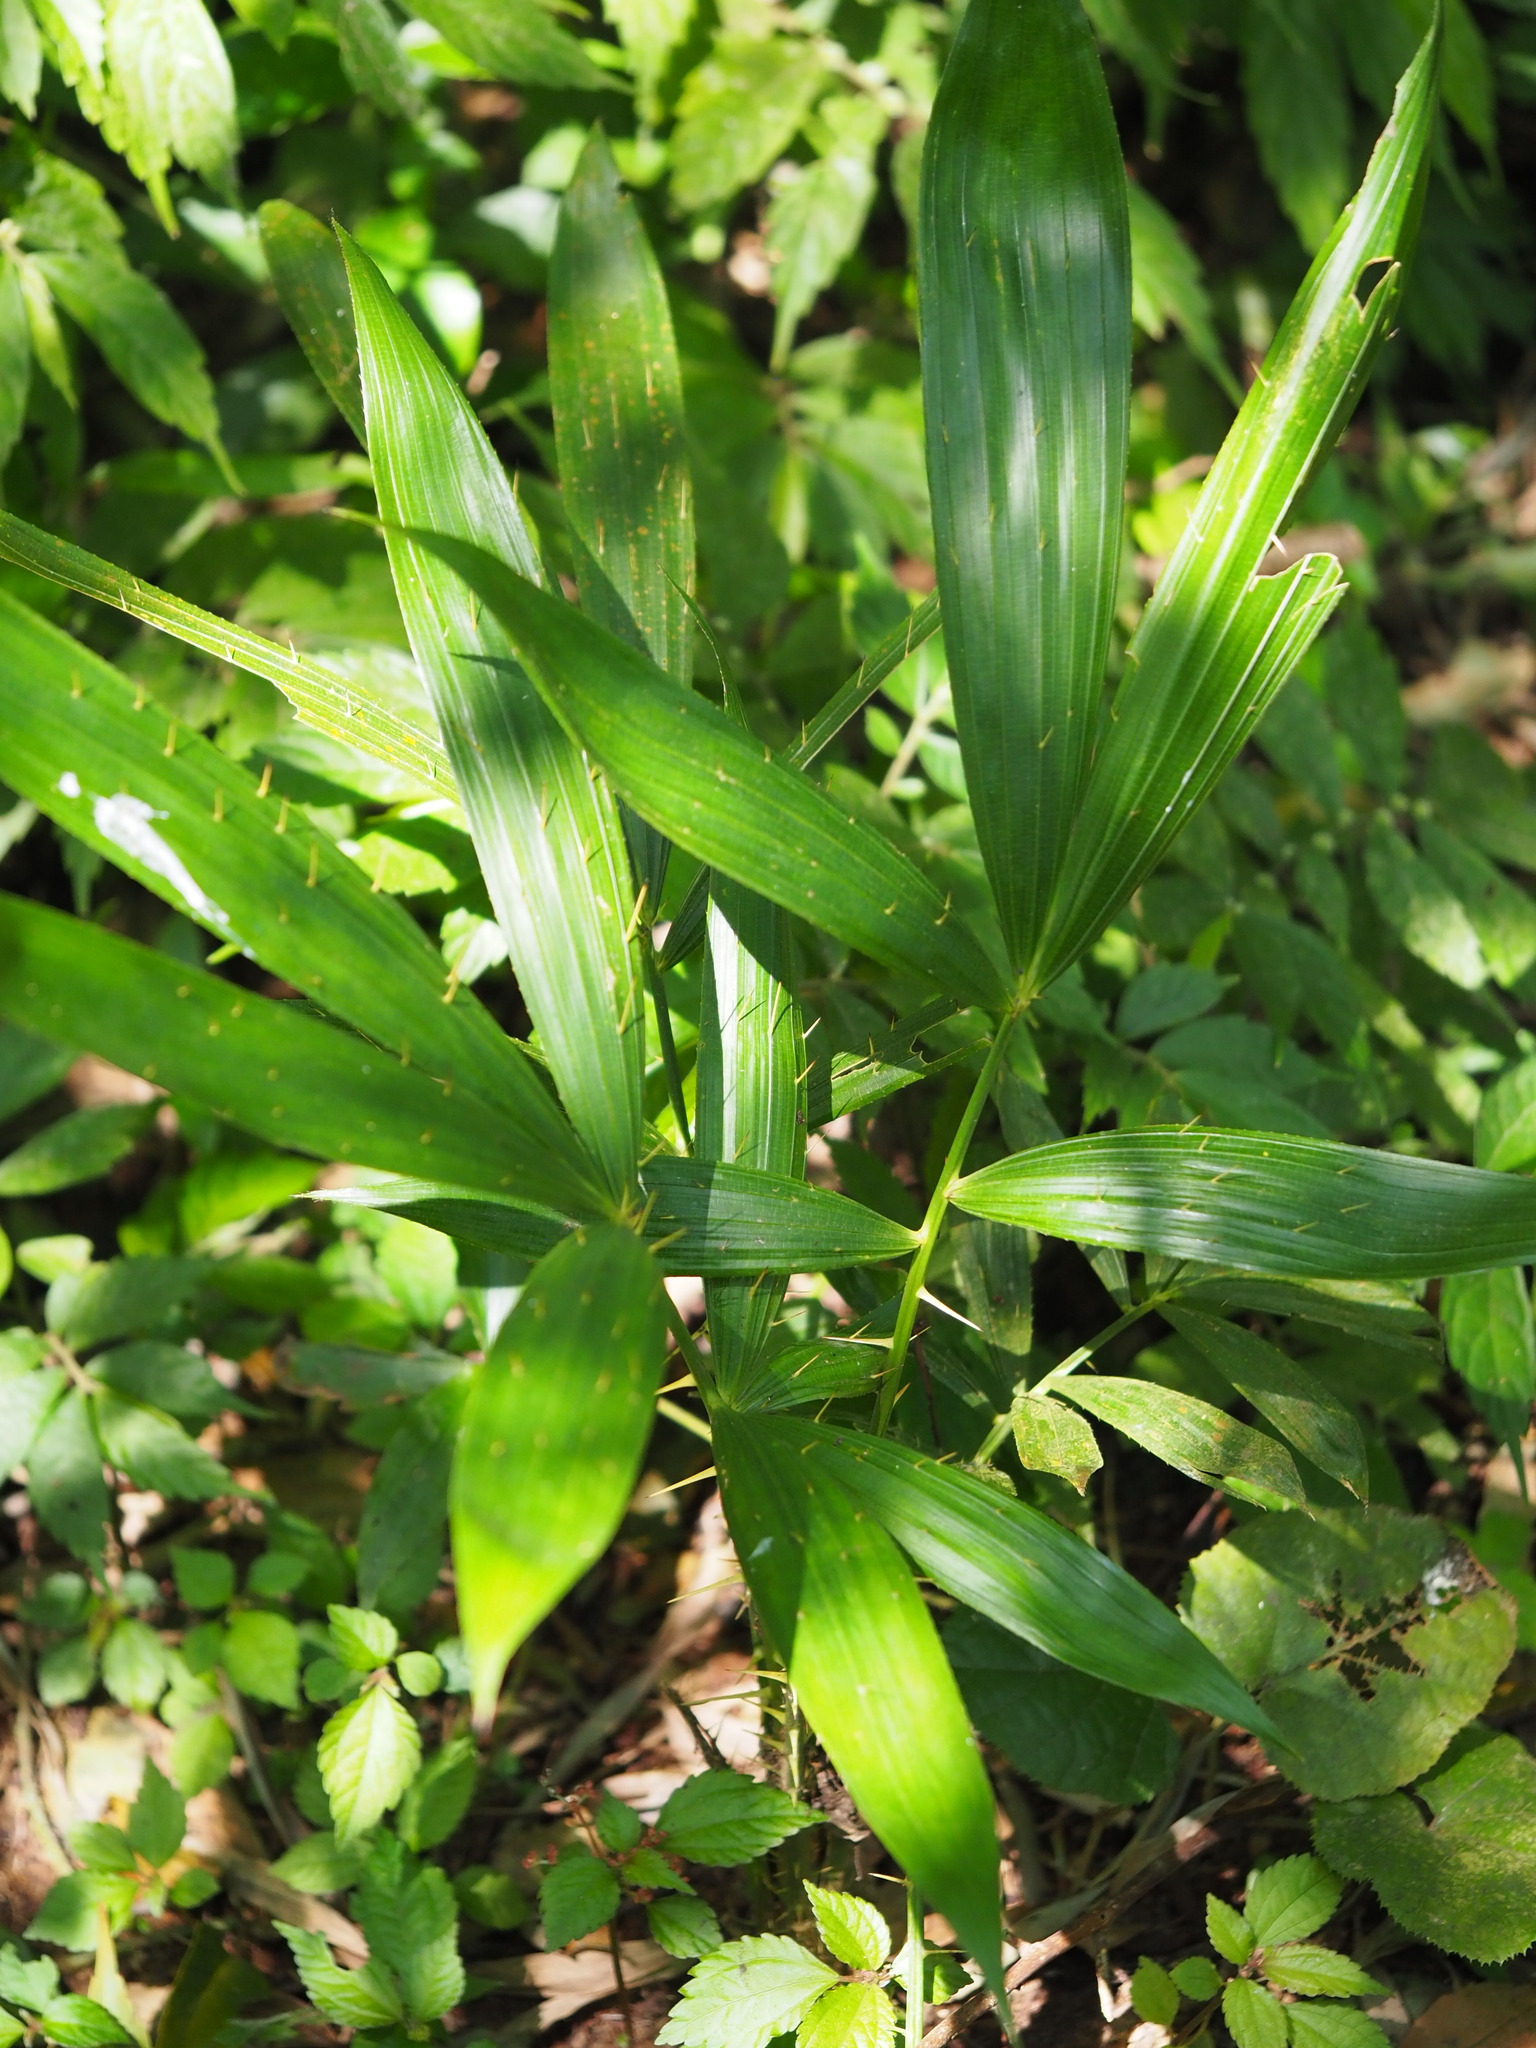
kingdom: Plantae
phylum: Tracheophyta
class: Liliopsida
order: Arecales
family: Arecaceae
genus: Calamus
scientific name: Calamus formosanus
